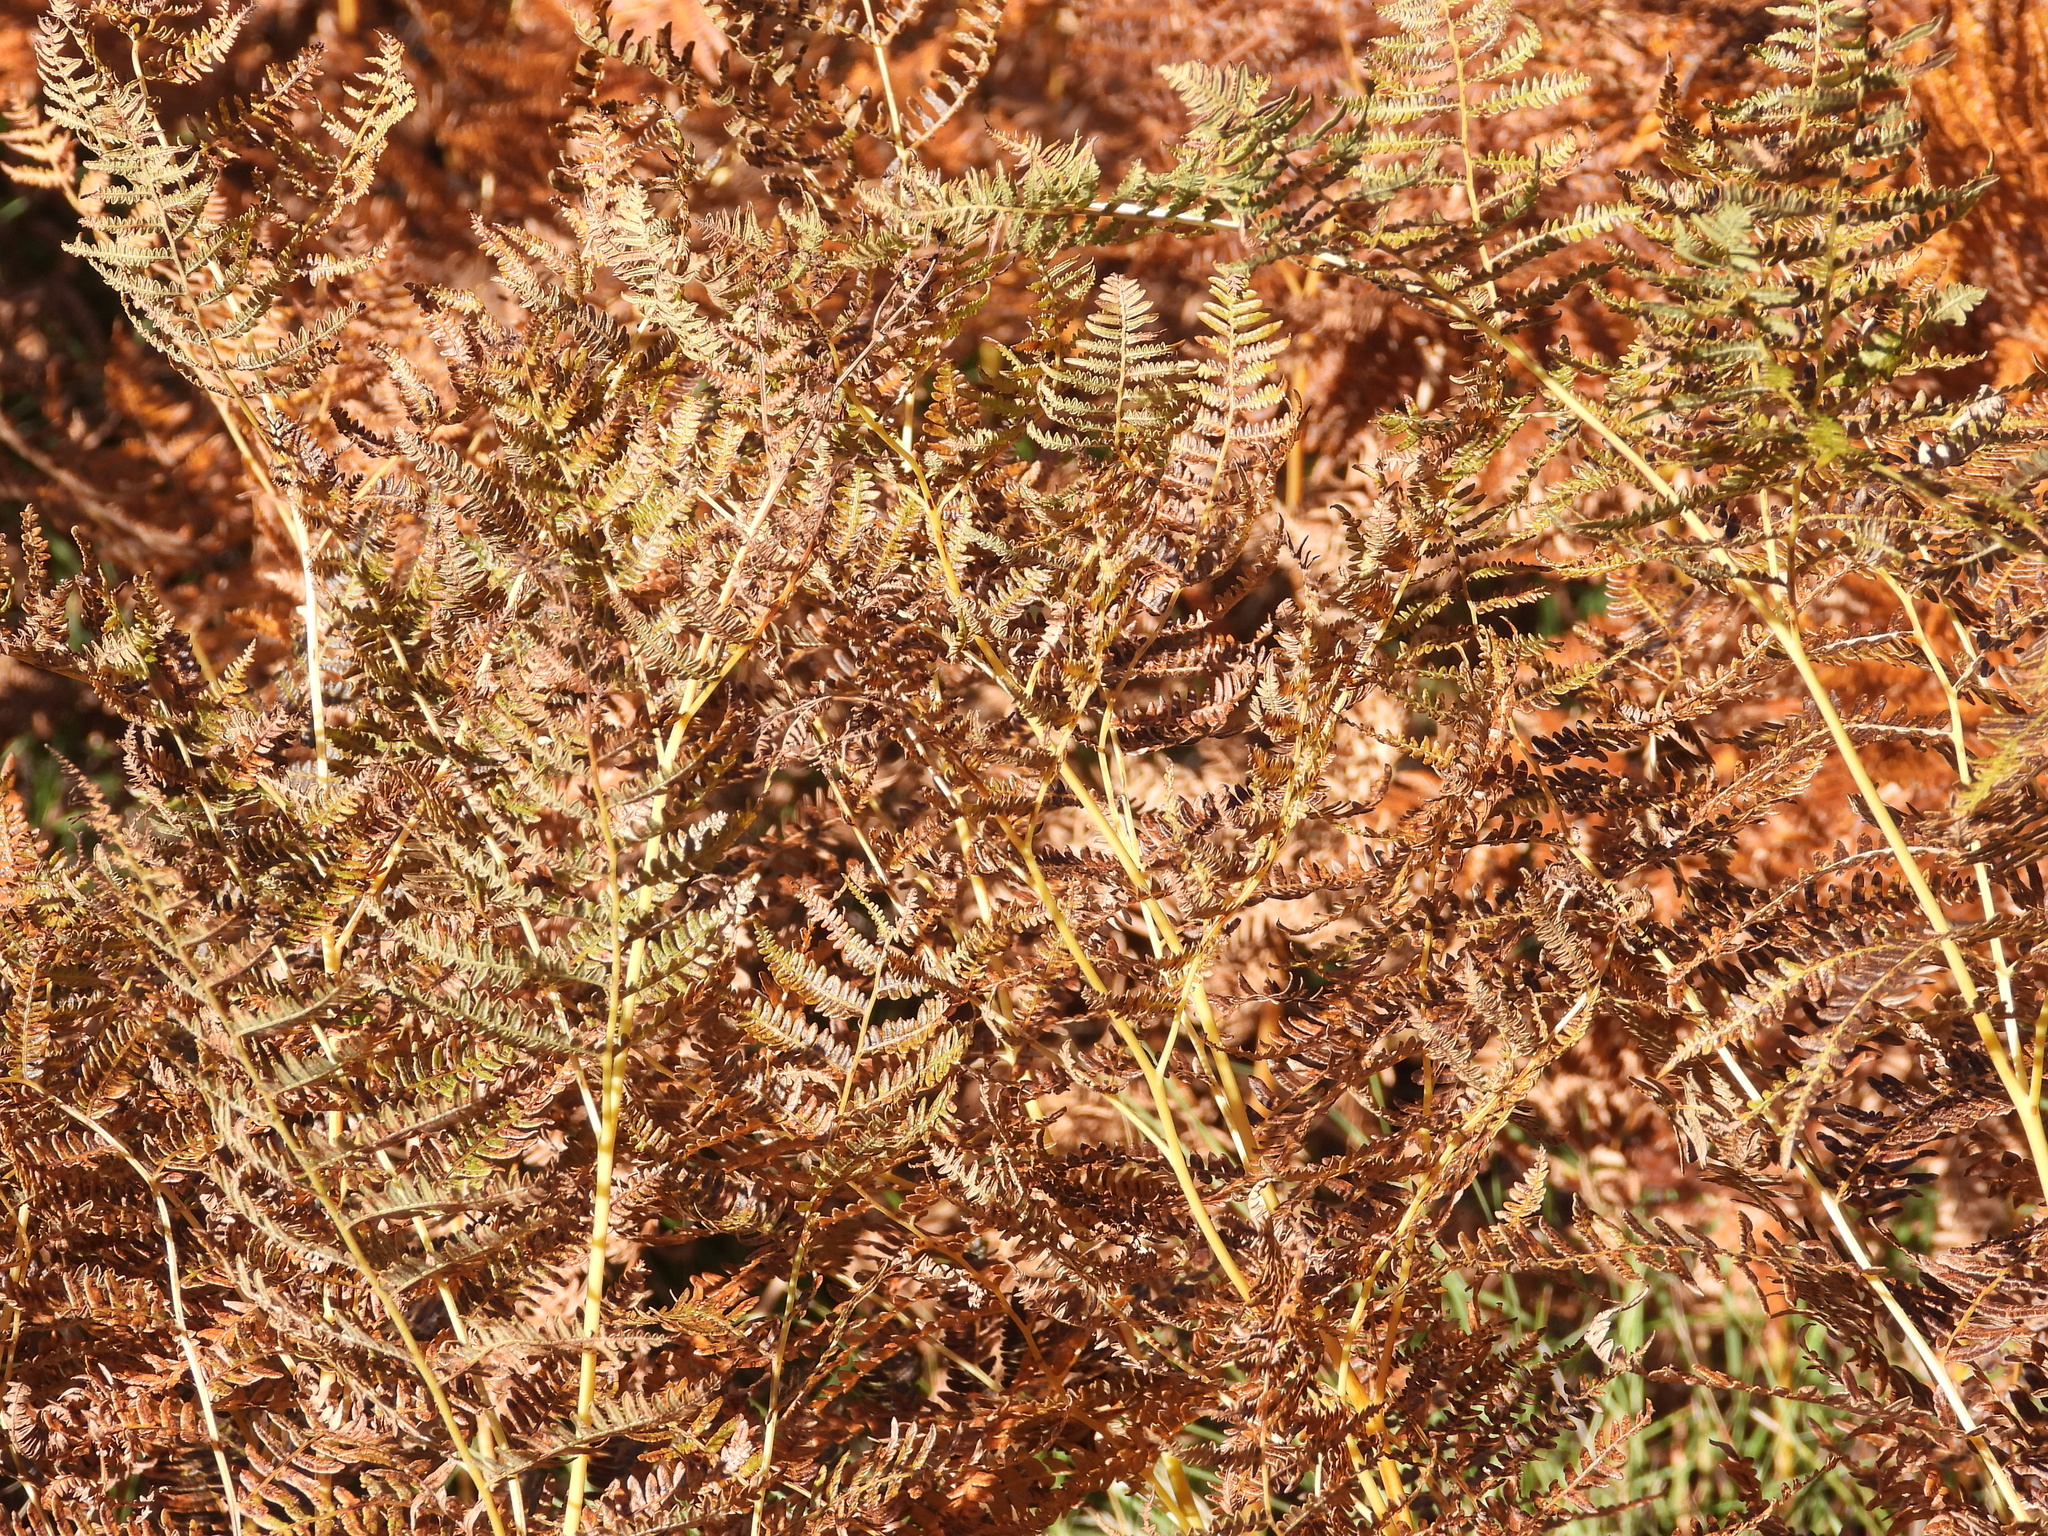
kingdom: Plantae
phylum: Tracheophyta
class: Polypodiopsida
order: Polypodiales
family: Dennstaedtiaceae
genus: Pteridium
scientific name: Pteridium aquilinum
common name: Bracken
